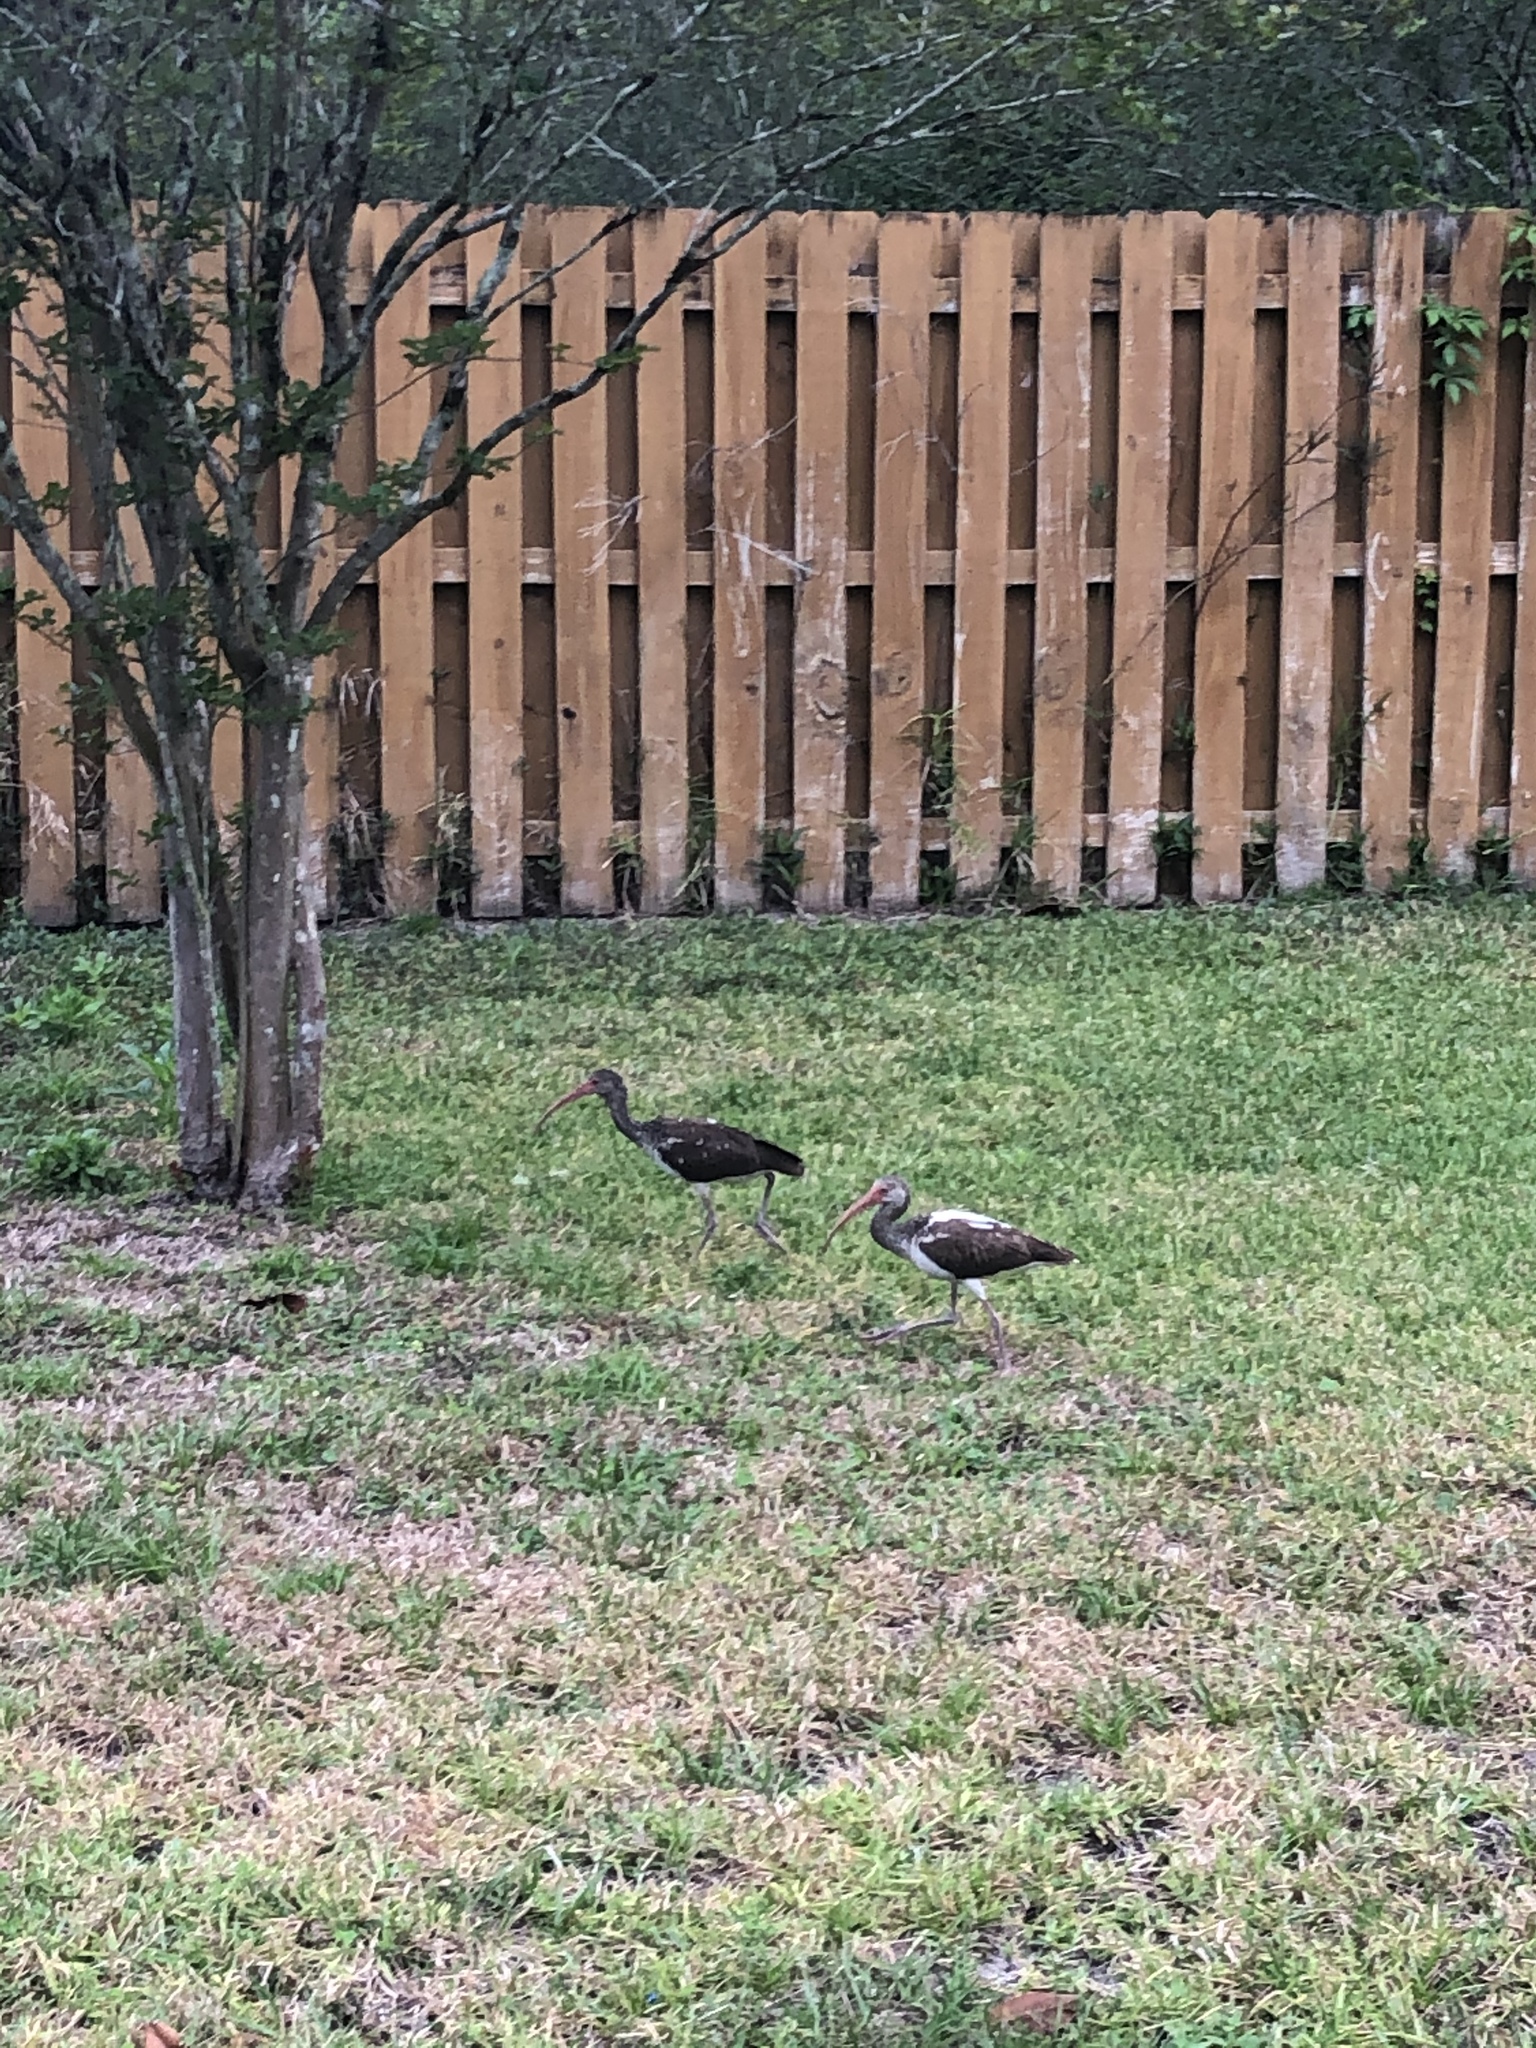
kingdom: Animalia
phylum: Chordata
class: Aves
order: Pelecaniformes
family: Threskiornithidae
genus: Eudocimus
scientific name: Eudocimus albus
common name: White ibis
